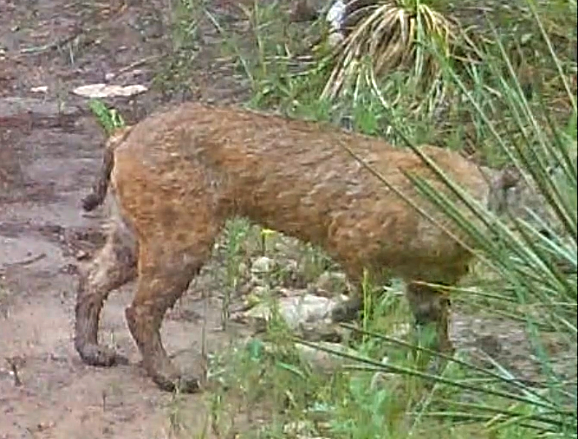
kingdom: Animalia
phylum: Chordata
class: Mammalia
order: Carnivora
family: Felidae
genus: Lynx
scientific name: Lynx rufus
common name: Bobcat
